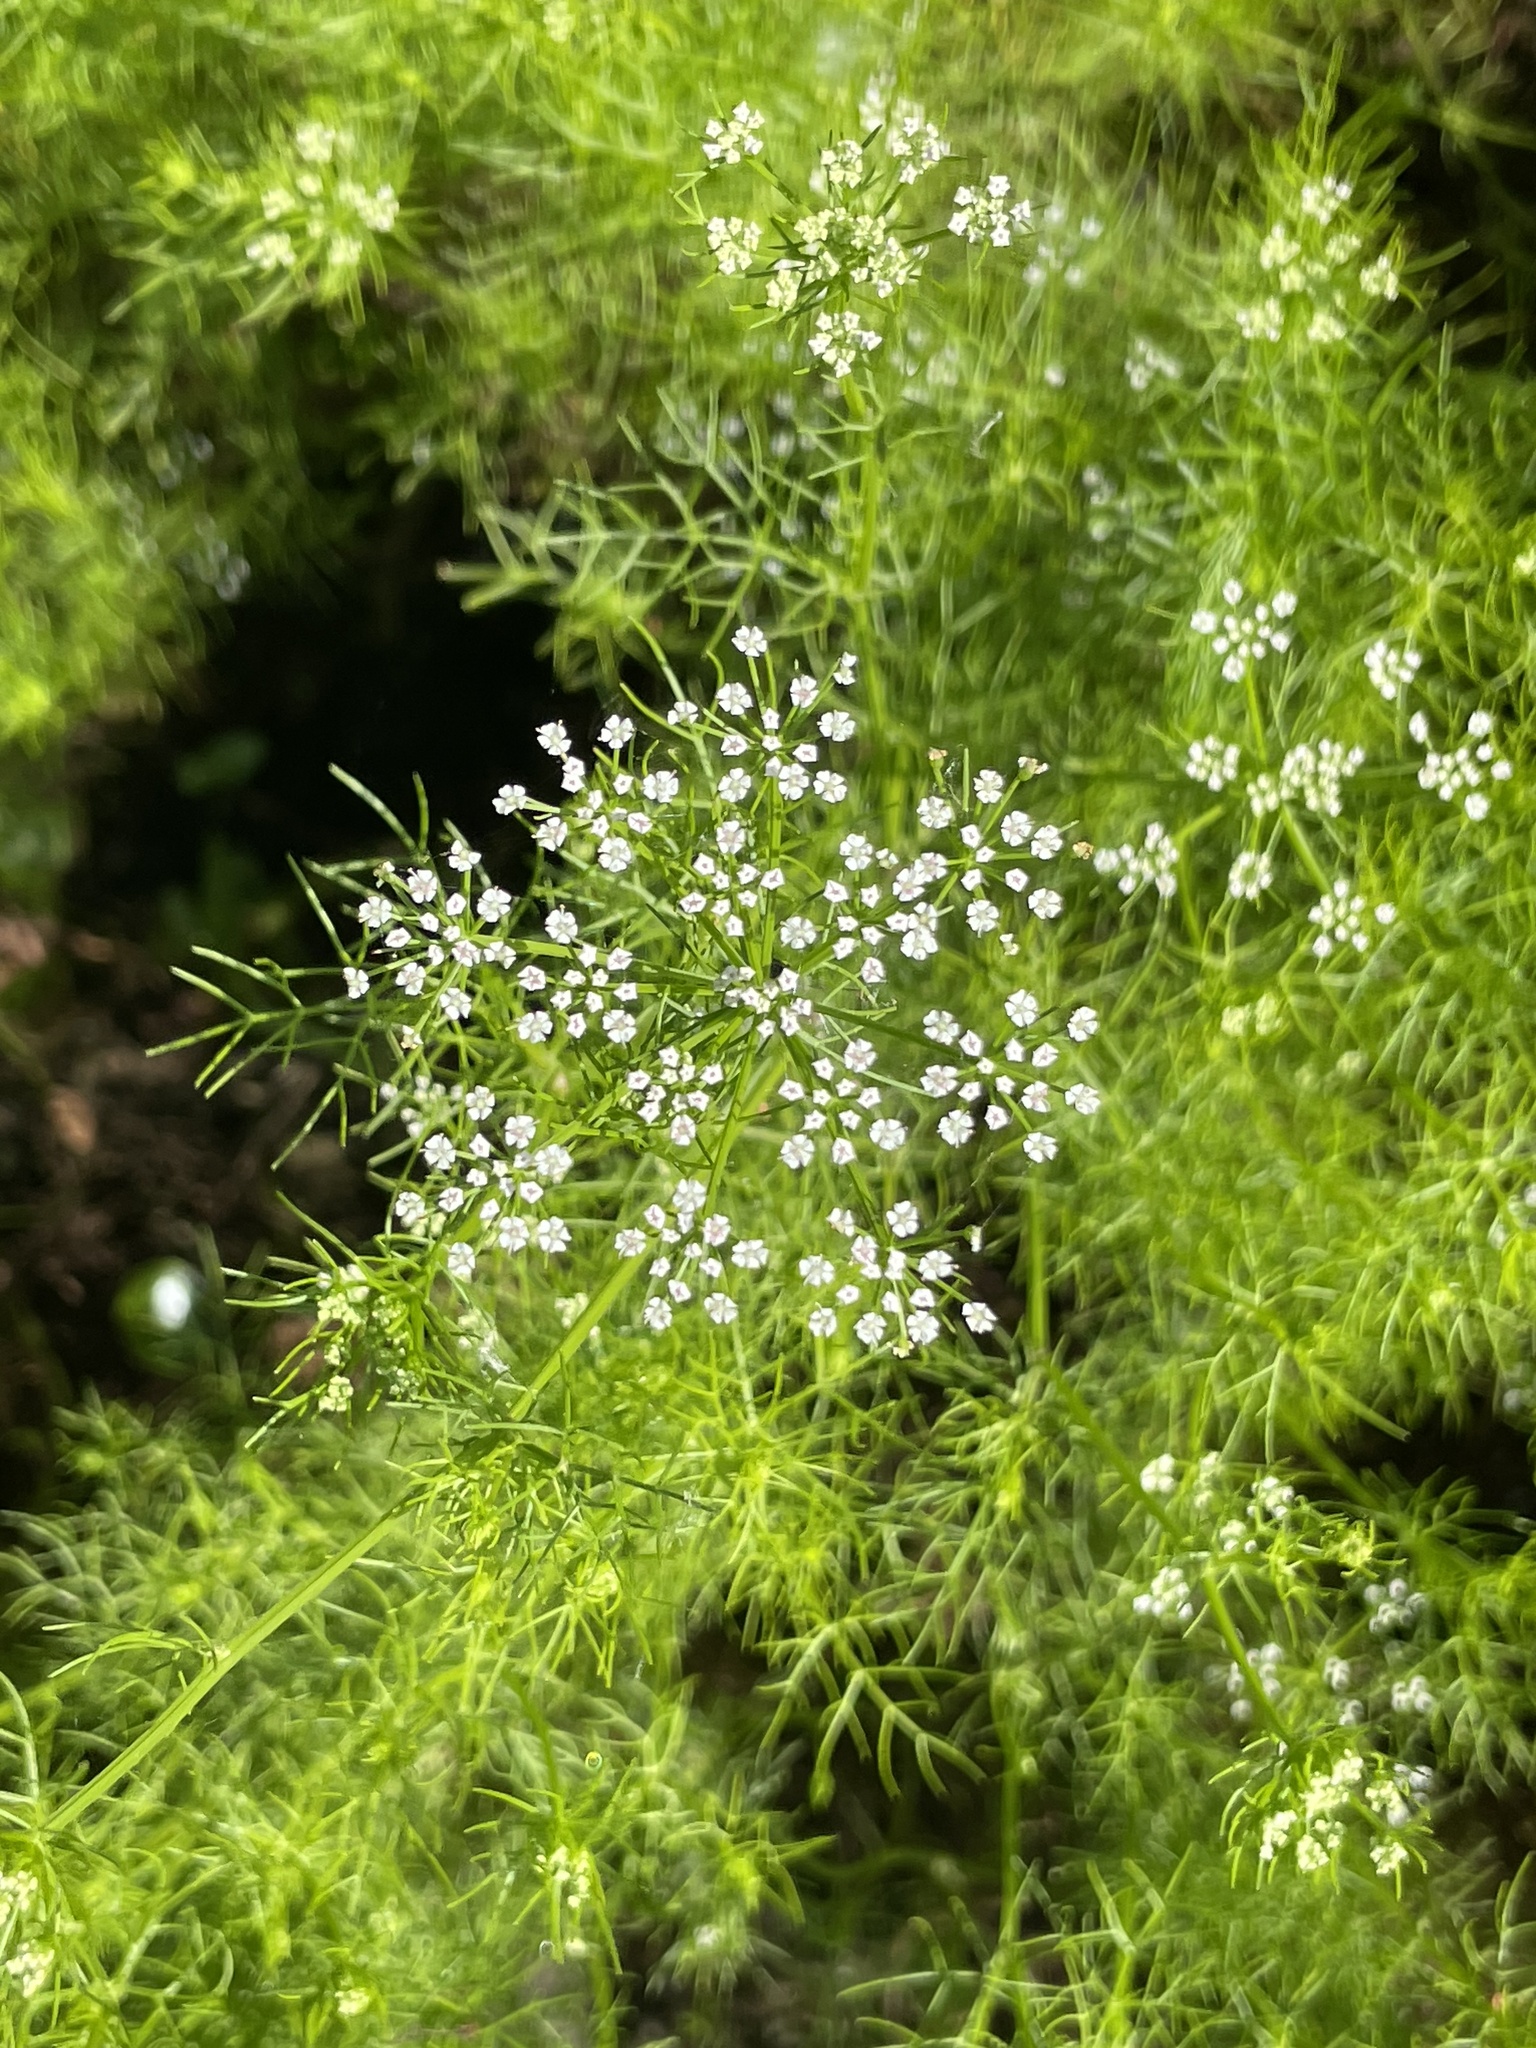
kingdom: Plantae
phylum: Tracheophyta
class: Magnoliopsida
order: Apiales
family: Apiaceae
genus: Ptilimnium
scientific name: Ptilimnium capillaceum
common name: Herbwilliam
